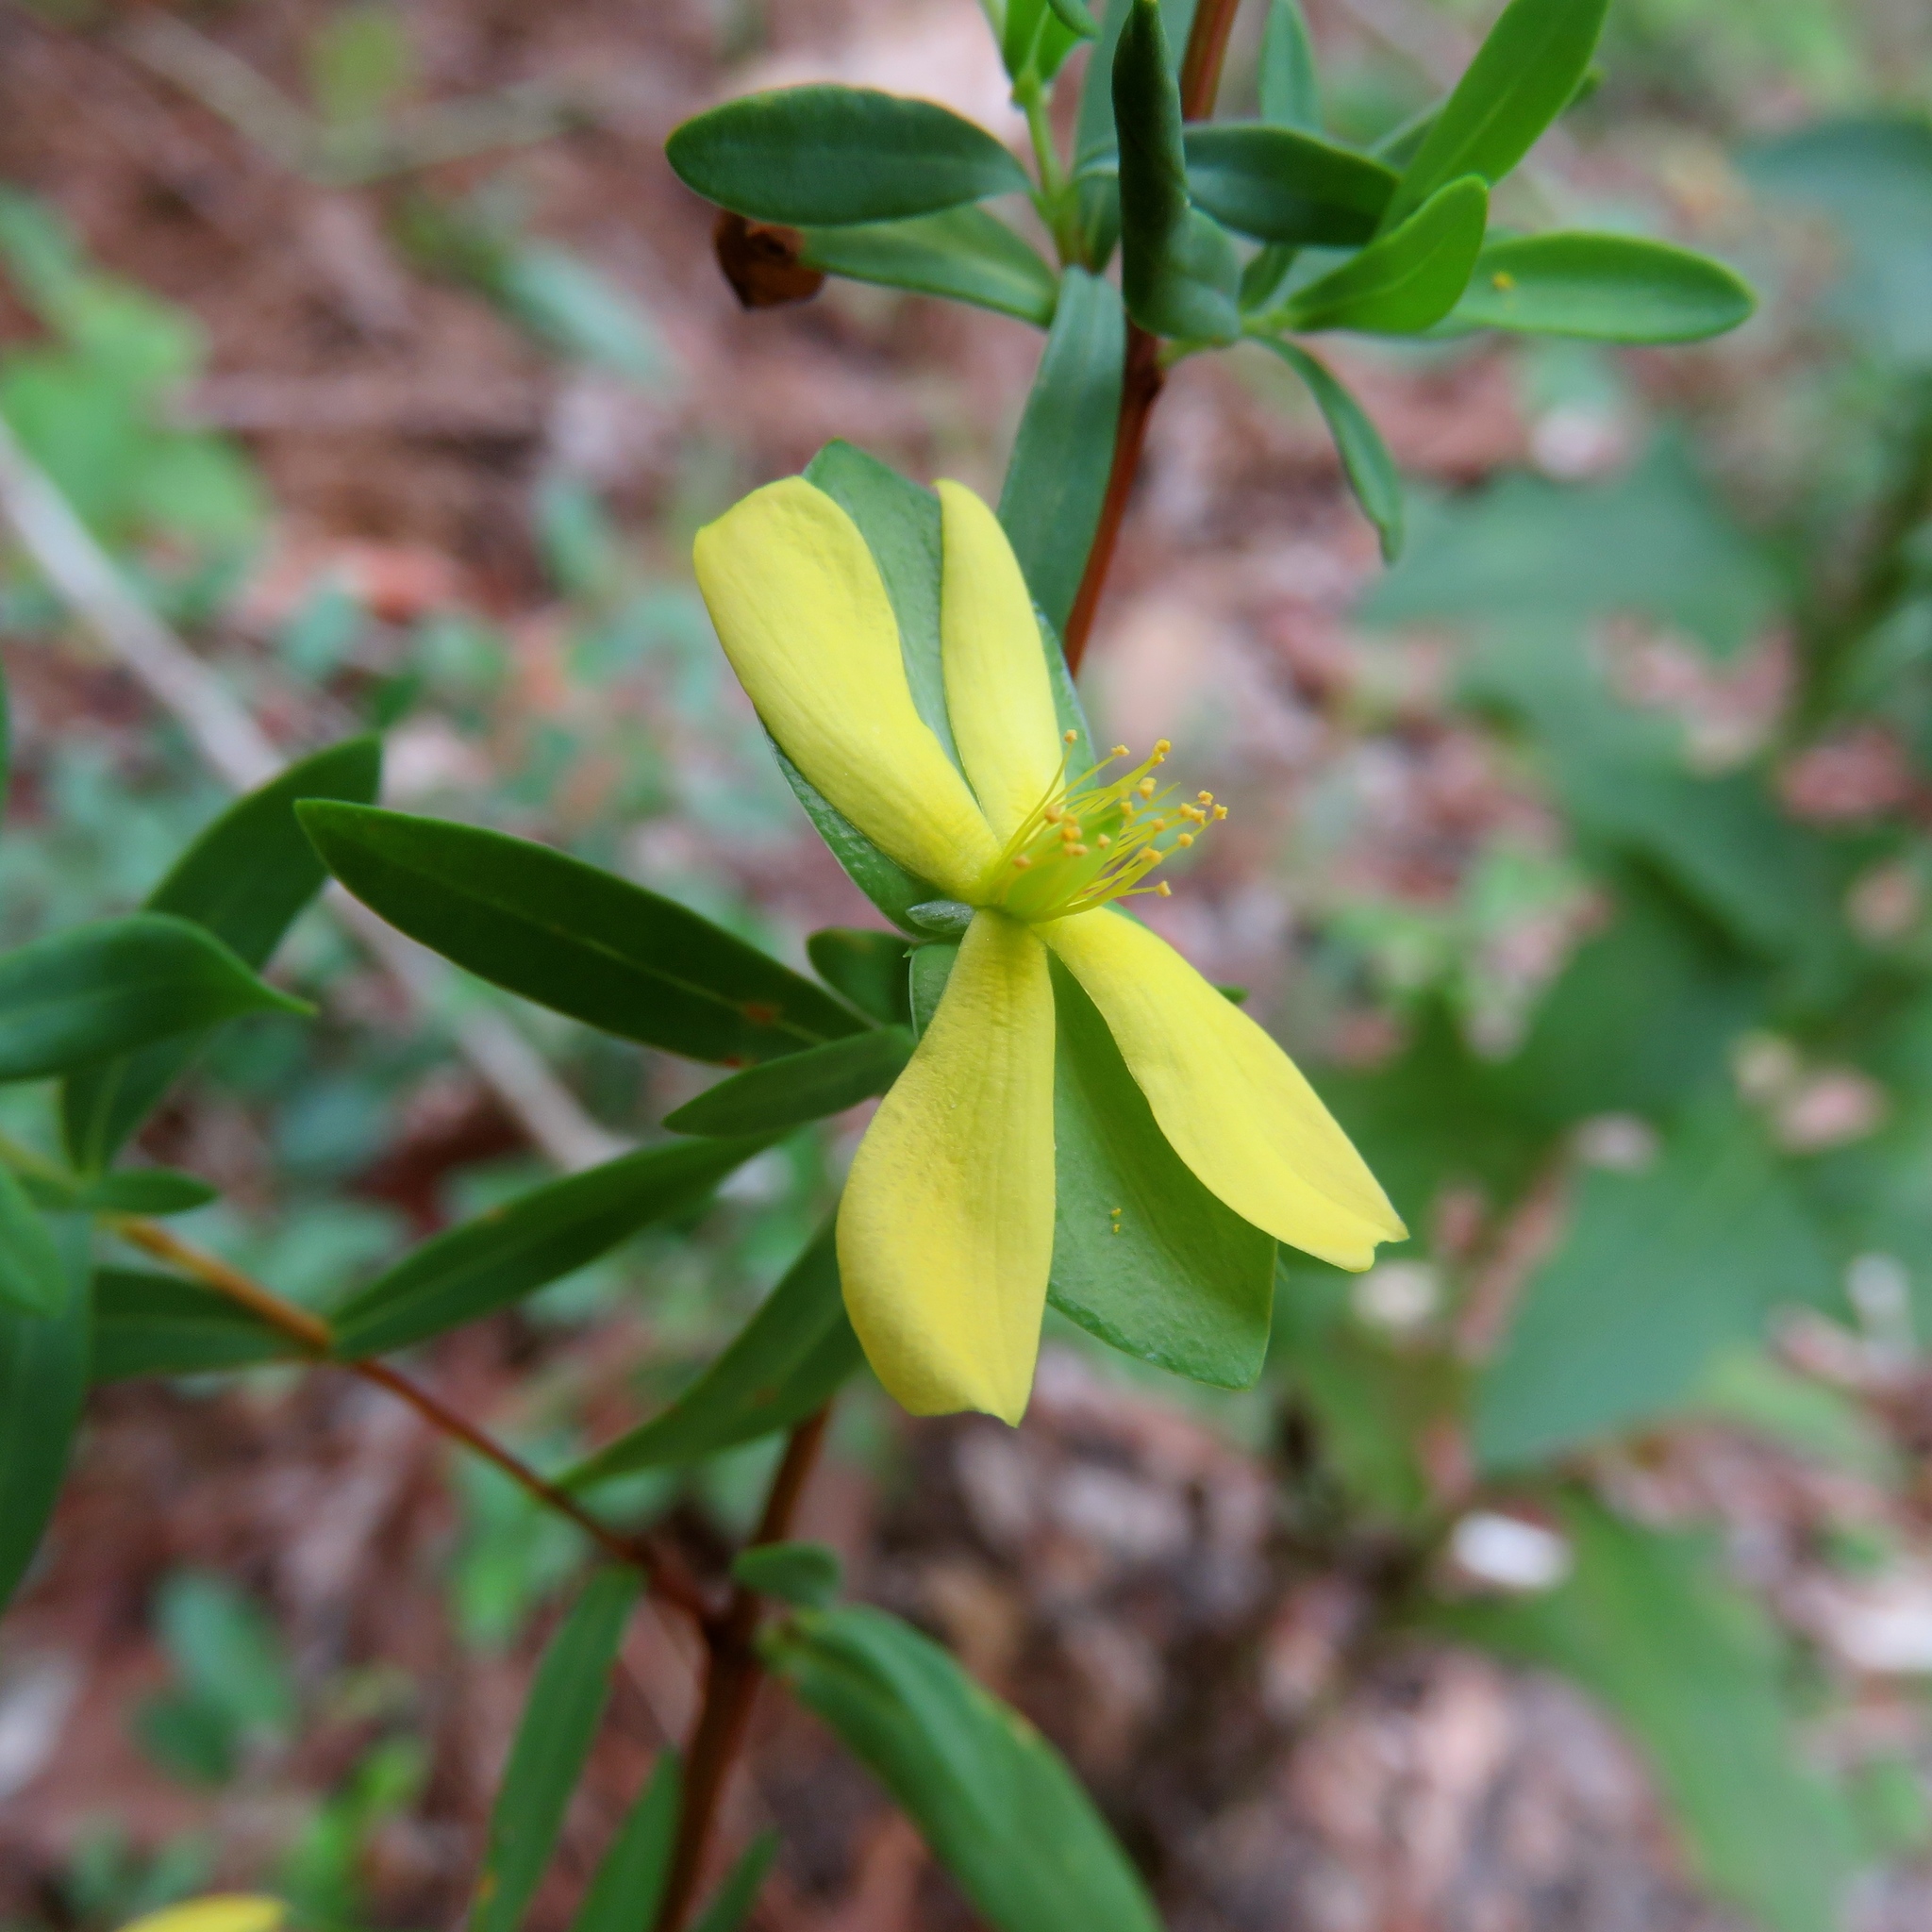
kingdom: Plantae
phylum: Tracheophyta
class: Magnoliopsida
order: Malpighiales
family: Hypericaceae
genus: Hypericum
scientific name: Hypericum hypericoides
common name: St. andrew's cross
